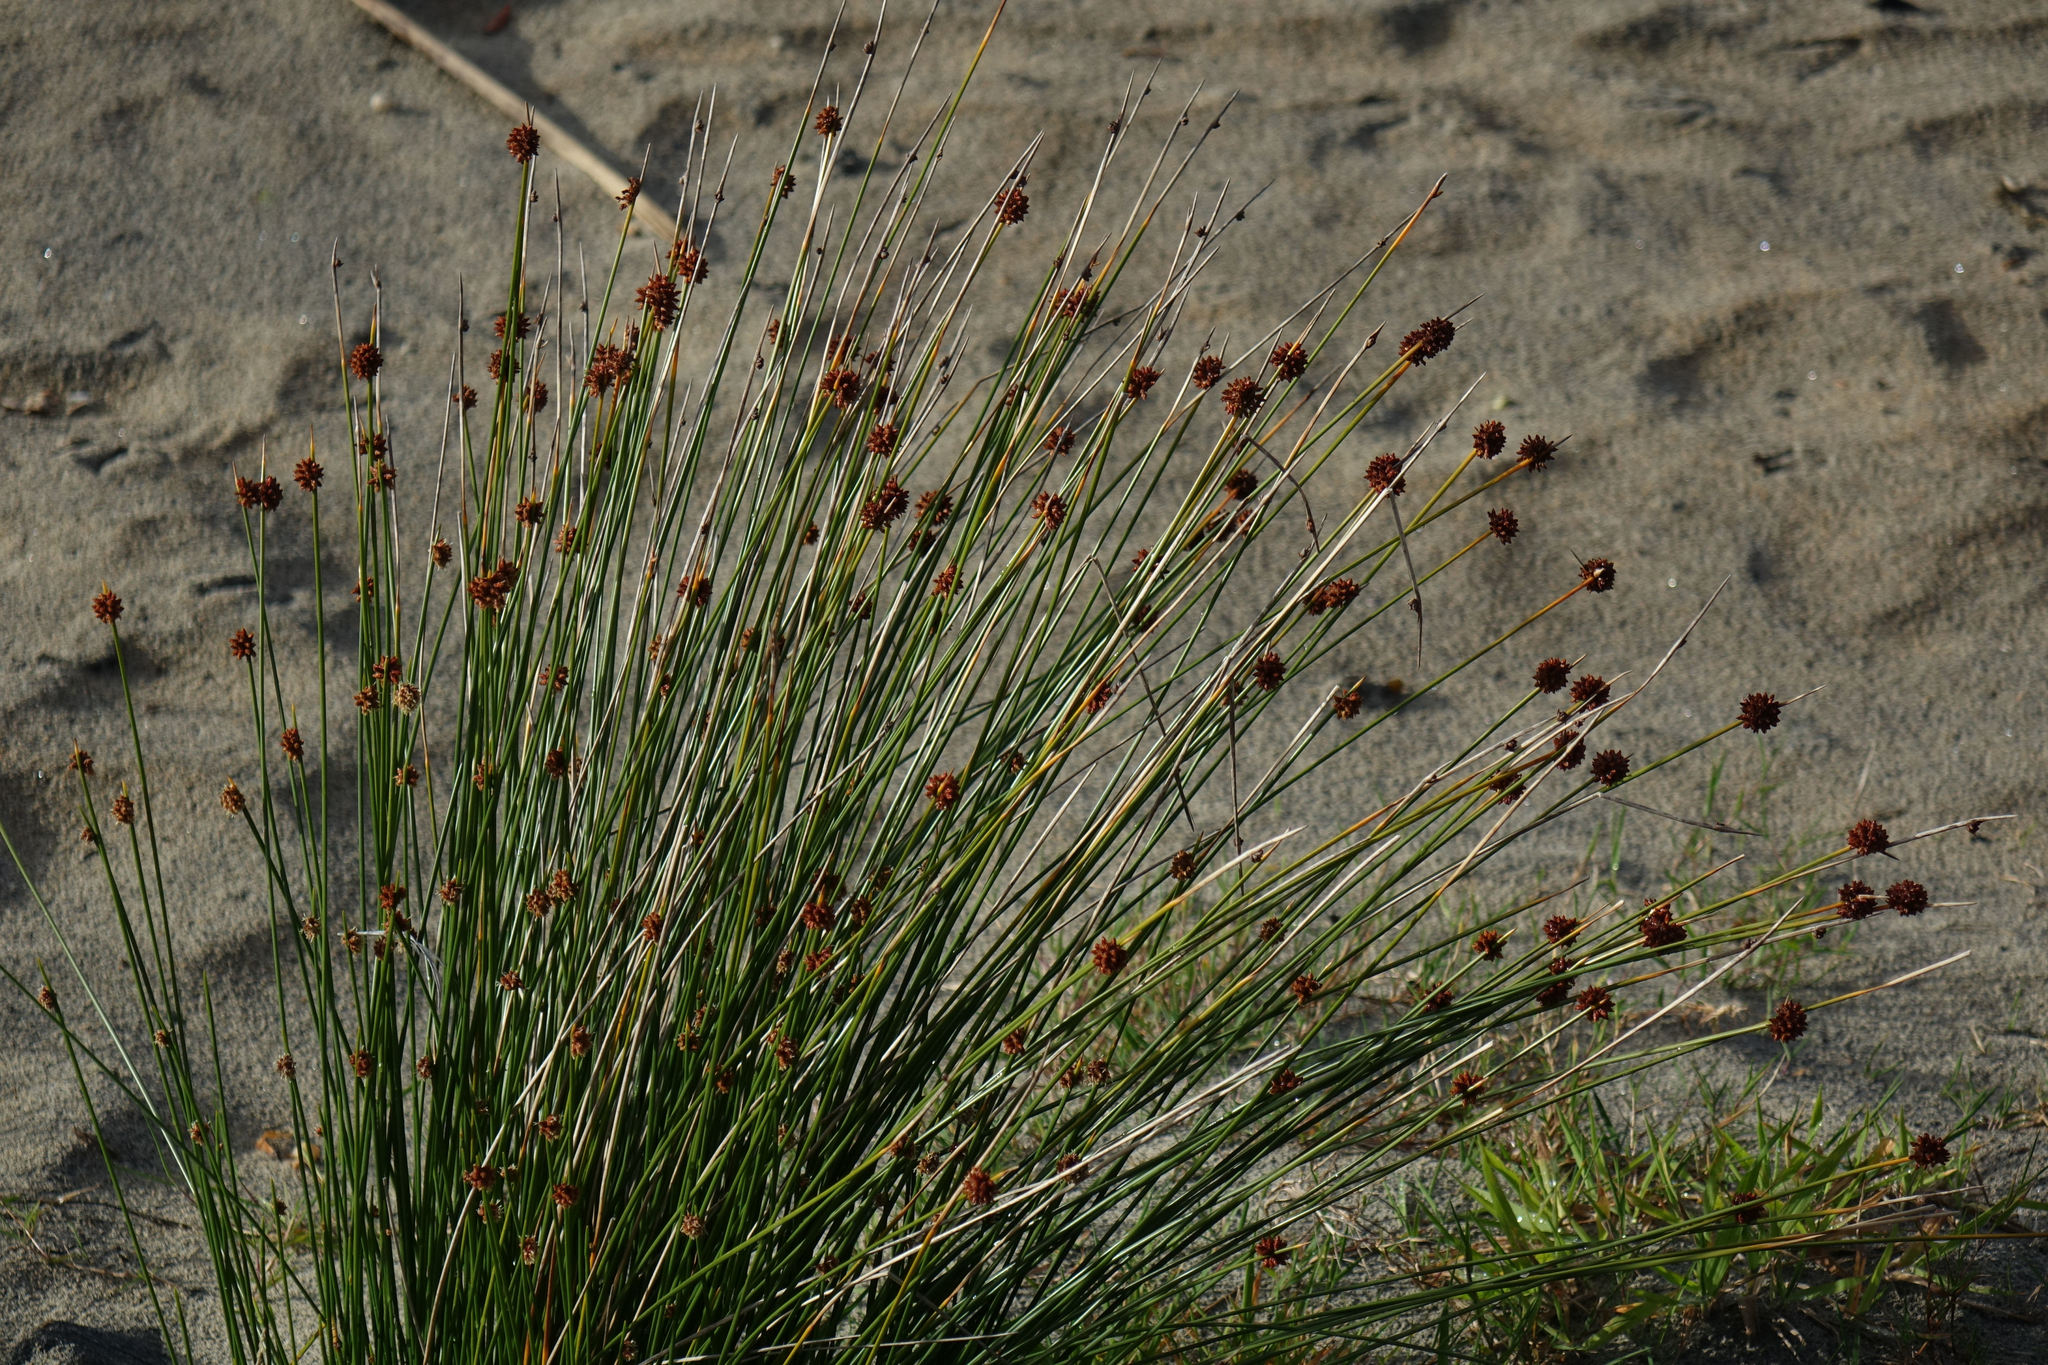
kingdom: Plantae
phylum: Tracheophyta
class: Liliopsida
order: Poales
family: Cyperaceae
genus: Ficinia
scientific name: Ficinia nodosa
